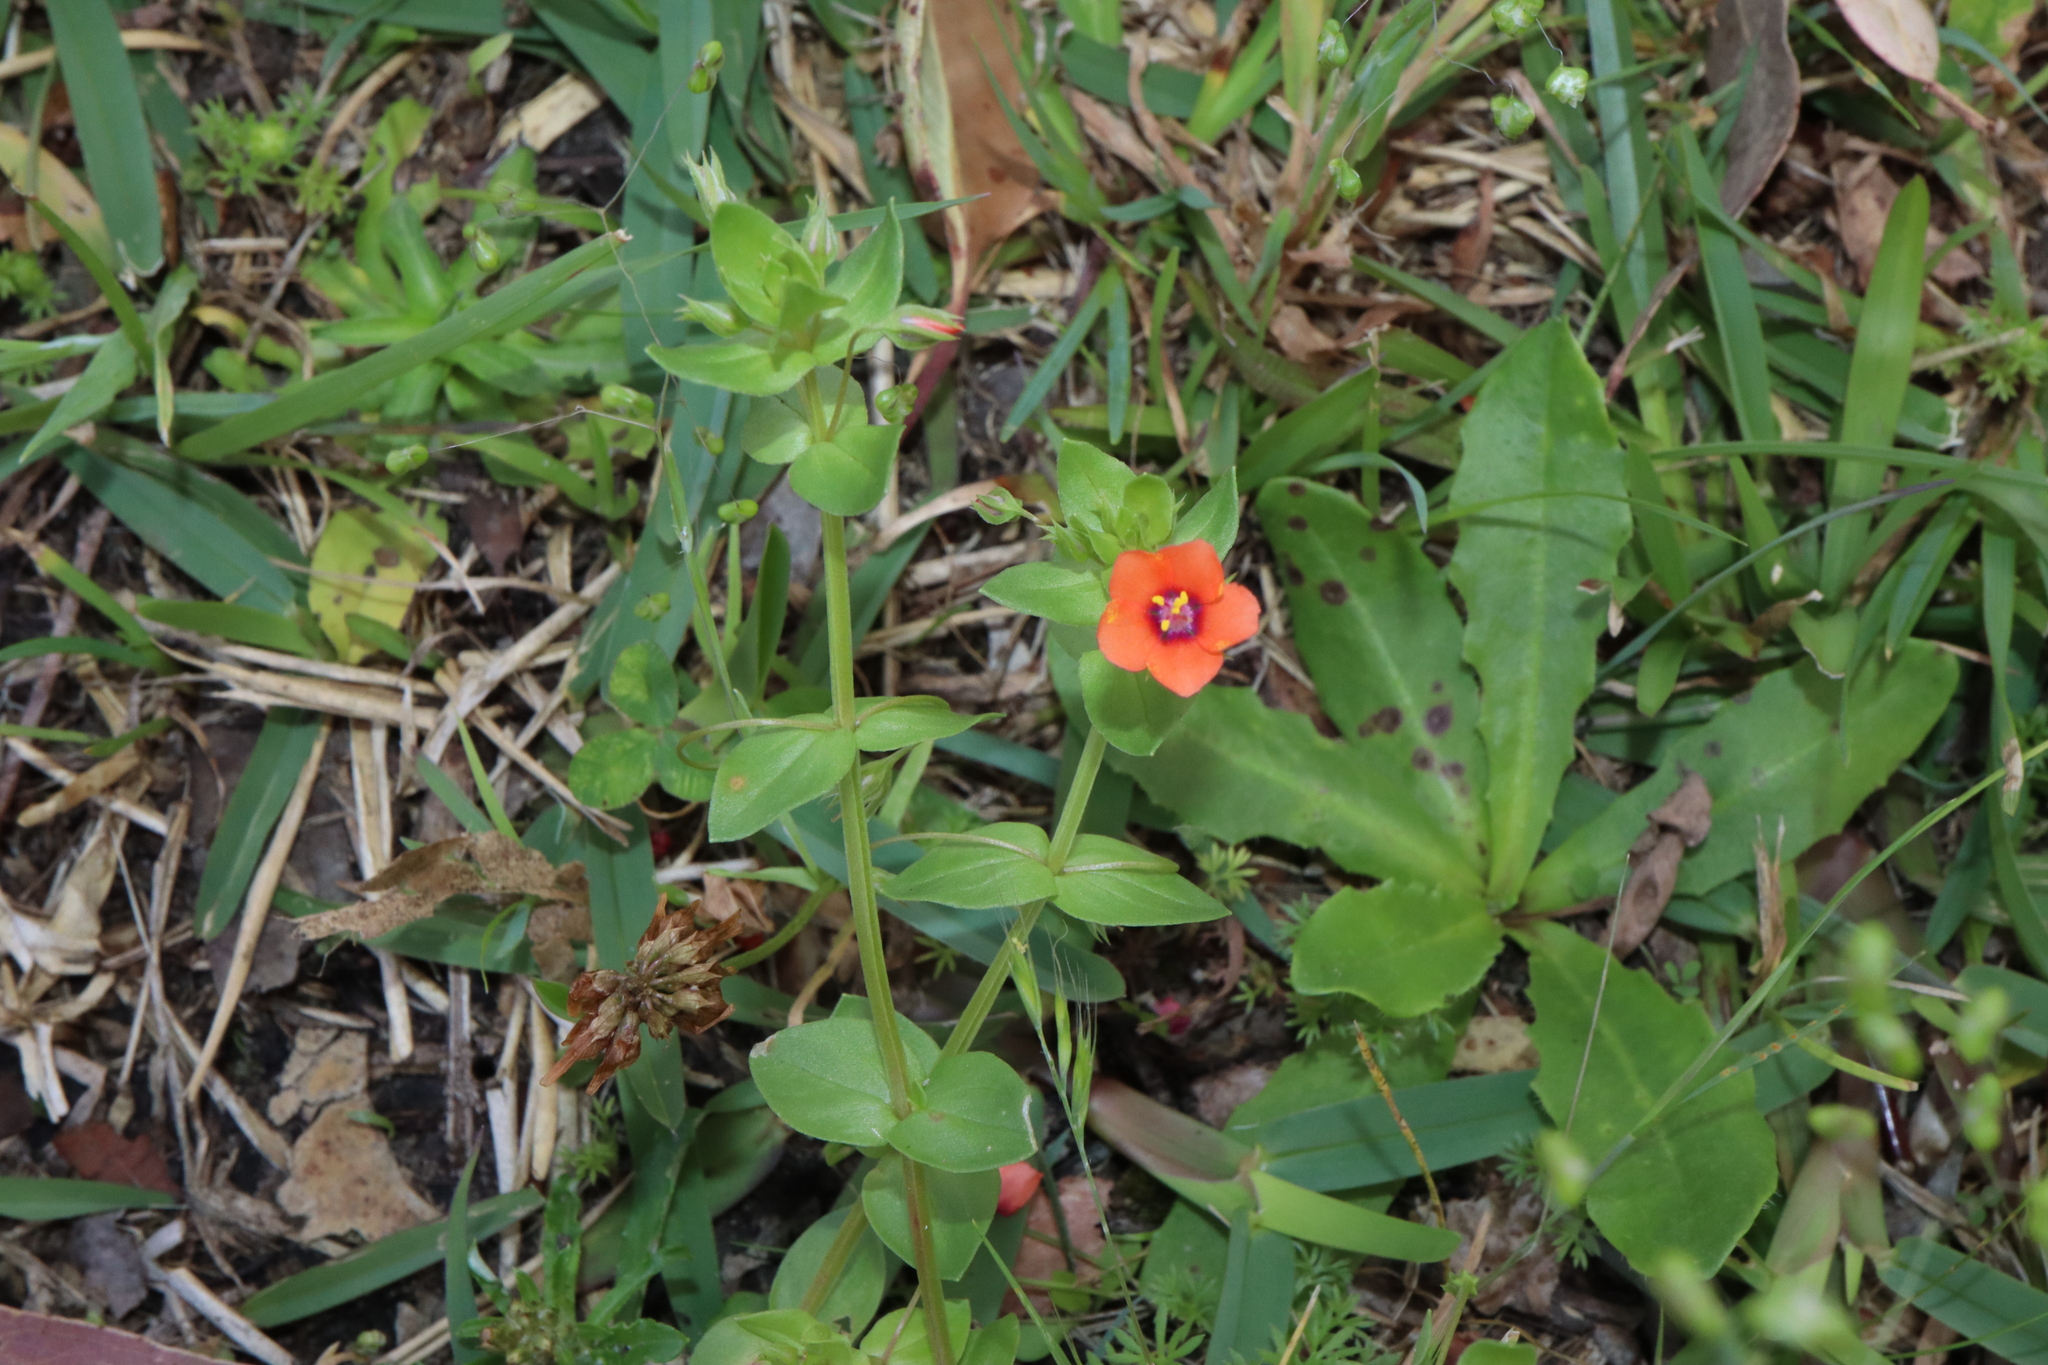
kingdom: Plantae
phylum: Tracheophyta
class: Magnoliopsida
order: Ericales
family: Primulaceae
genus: Lysimachia
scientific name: Lysimachia arvensis
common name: Scarlet pimpernel
